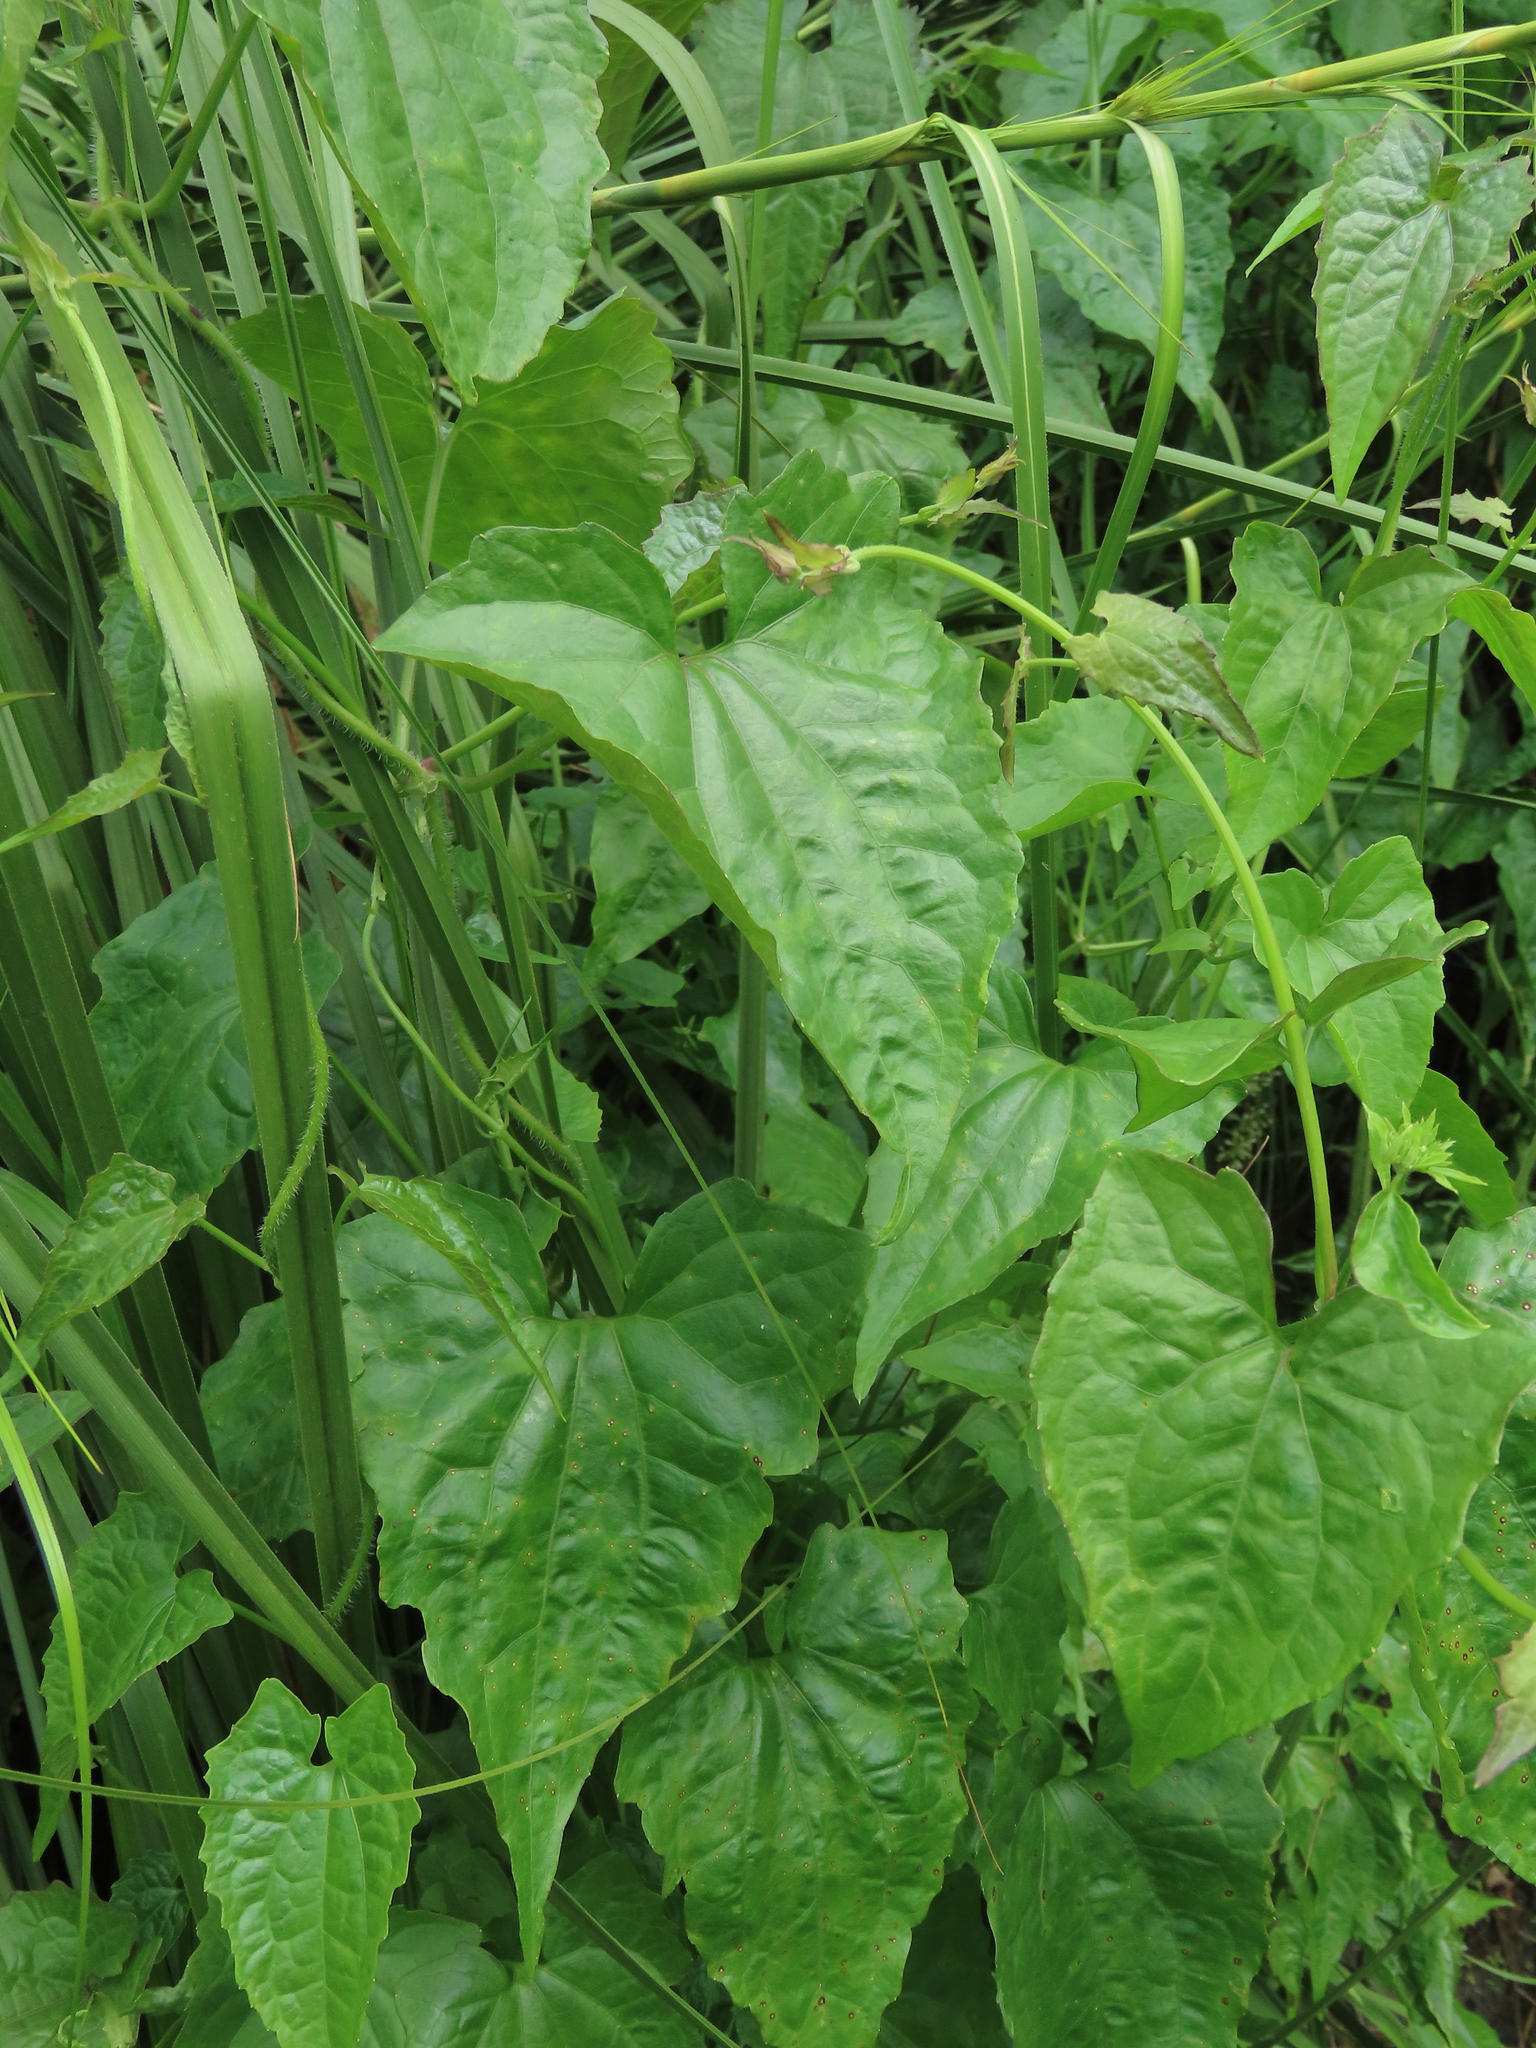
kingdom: Plantae
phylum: Tracheophyta
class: Magnoliopsida
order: Asterales
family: Asteraceae
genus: Mikania
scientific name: Mikania micrantha
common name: Mile-a-minute
